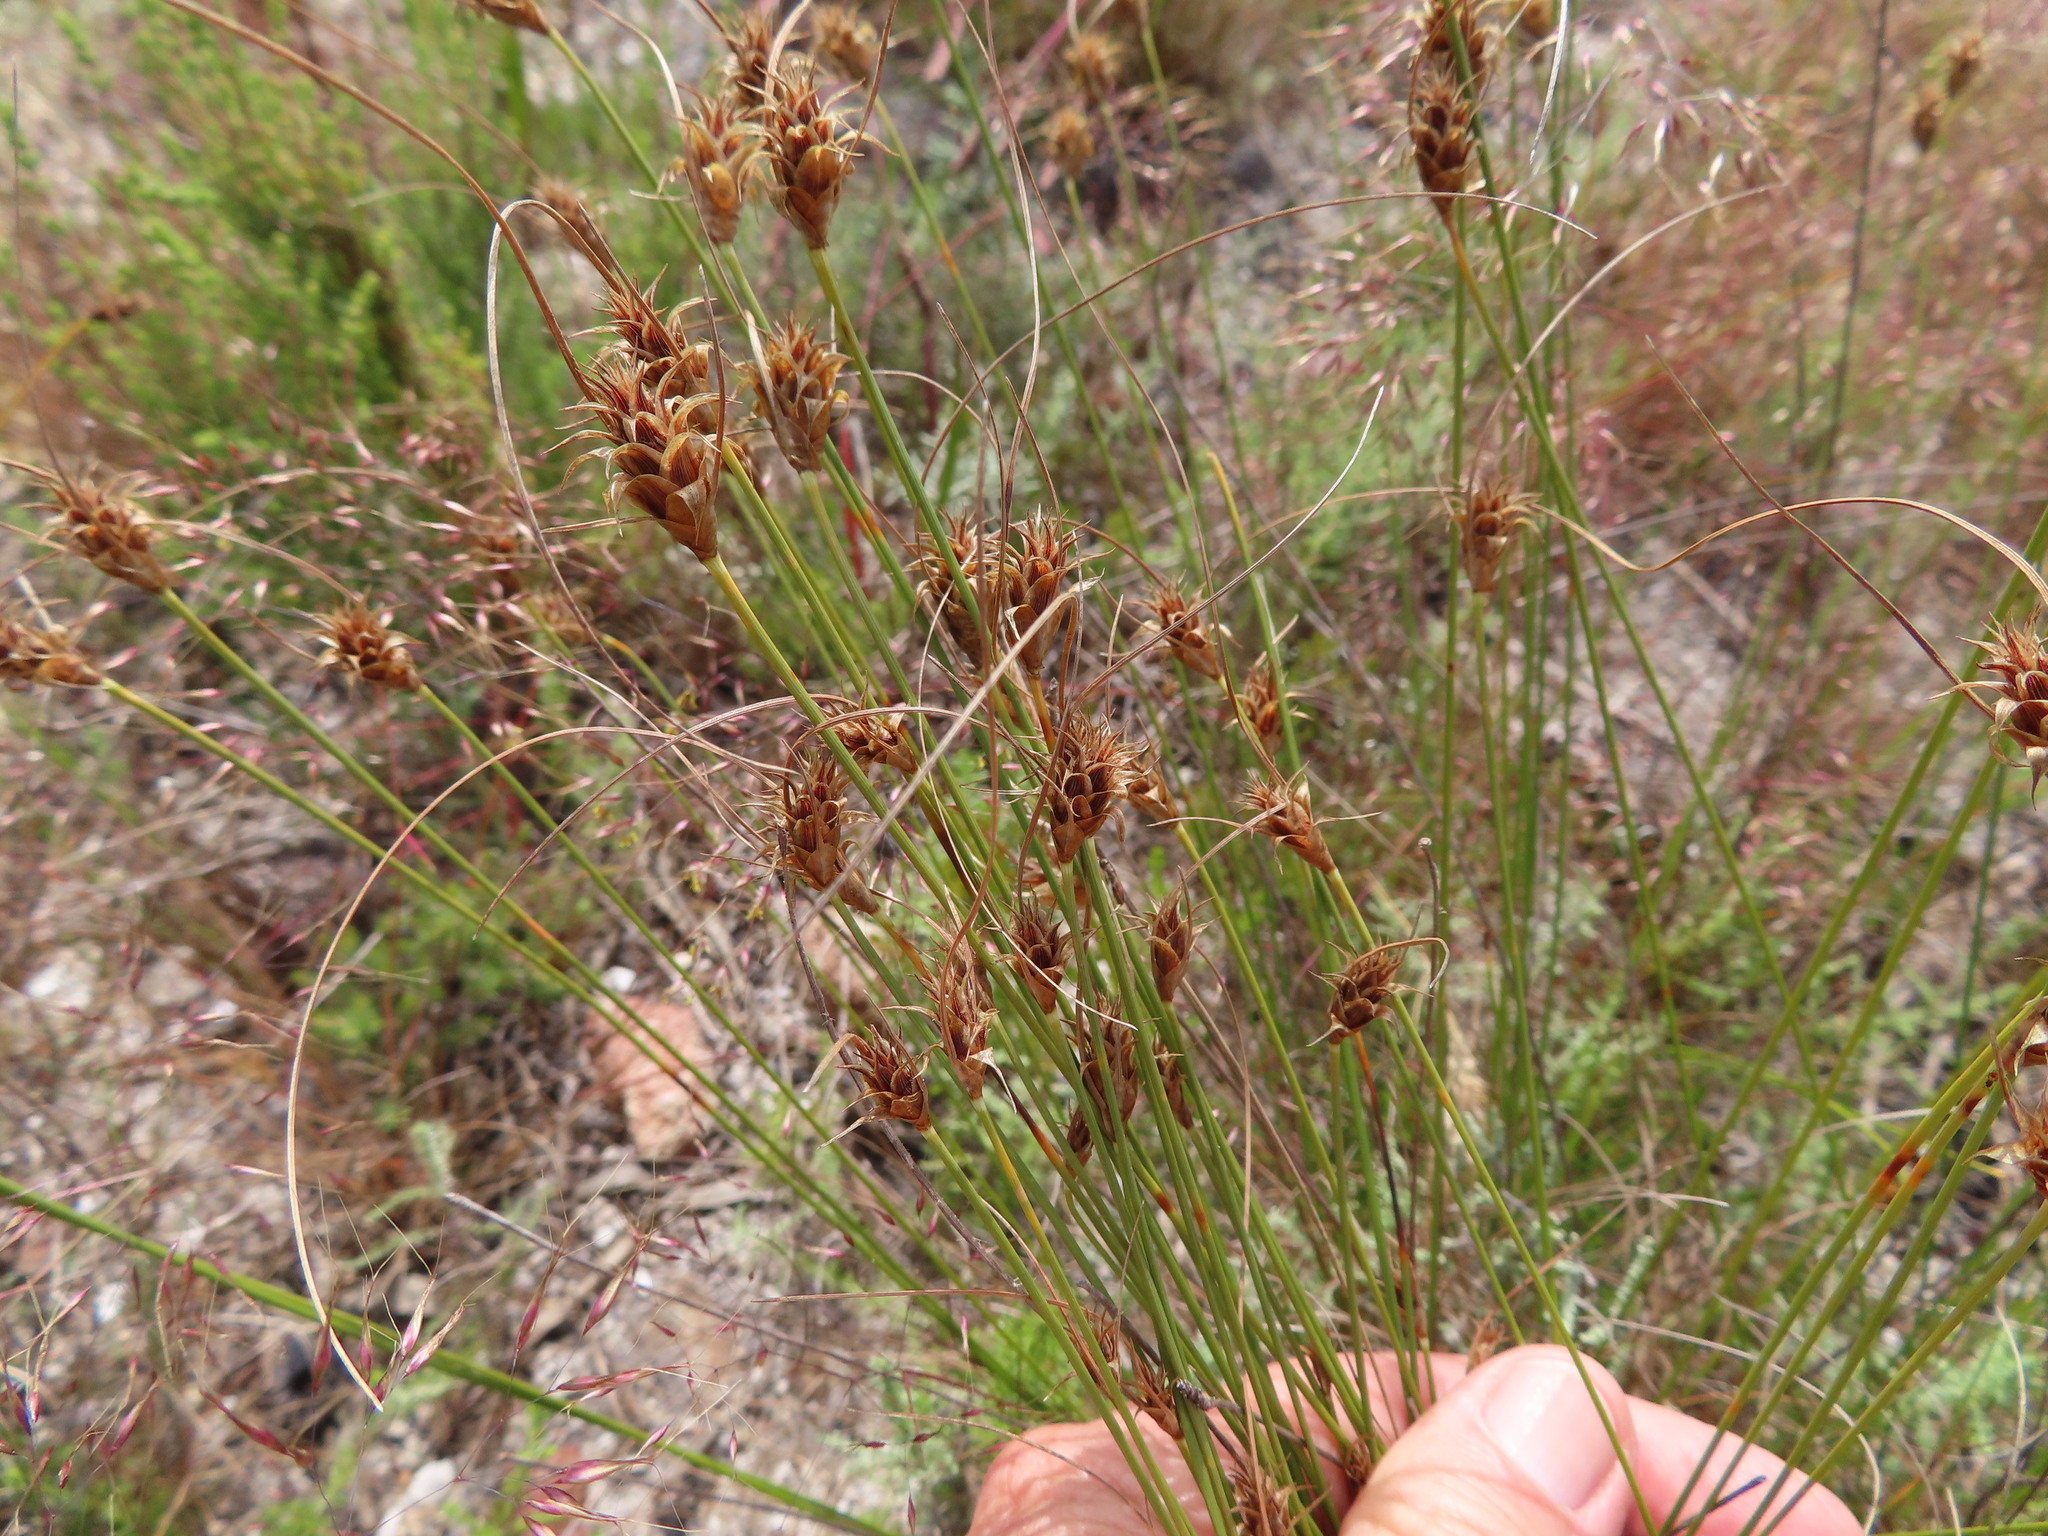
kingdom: Plantae
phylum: Tracheophyta
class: Liliopsida
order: Poales
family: Cyperaceae
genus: Ficinia
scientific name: Ficinia nigrescens
